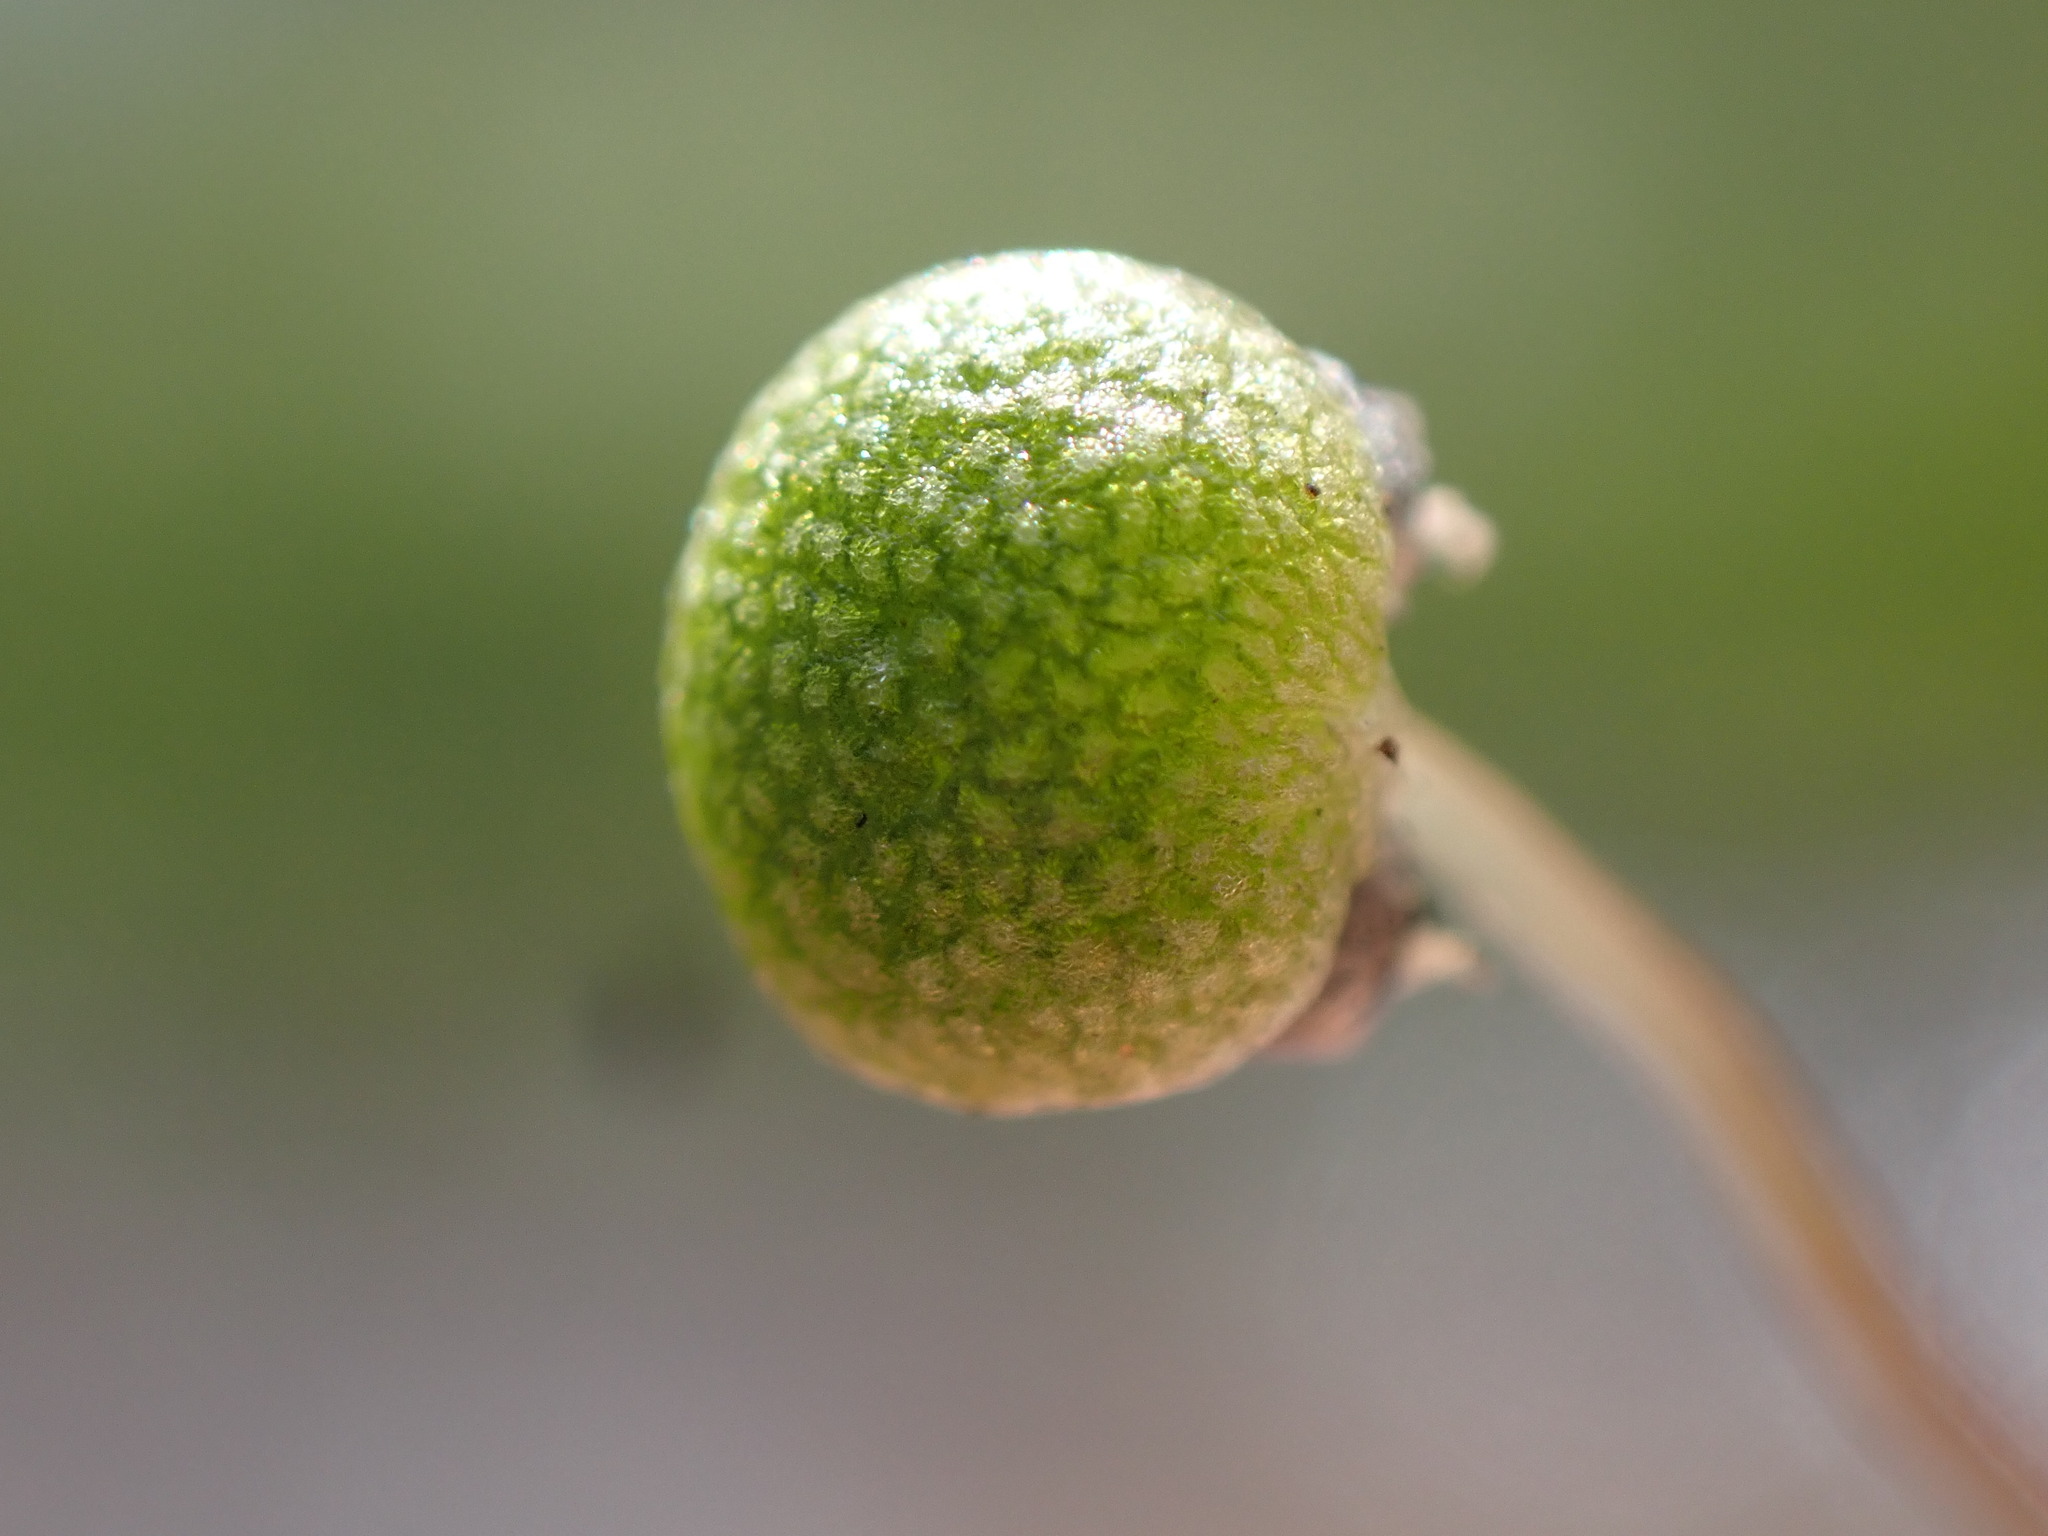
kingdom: Plantae
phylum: Marchantiophyta
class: Marchantiopsida
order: Marchantiales
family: Aytoniaceae
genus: Mannia
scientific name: Mannia gracilis
